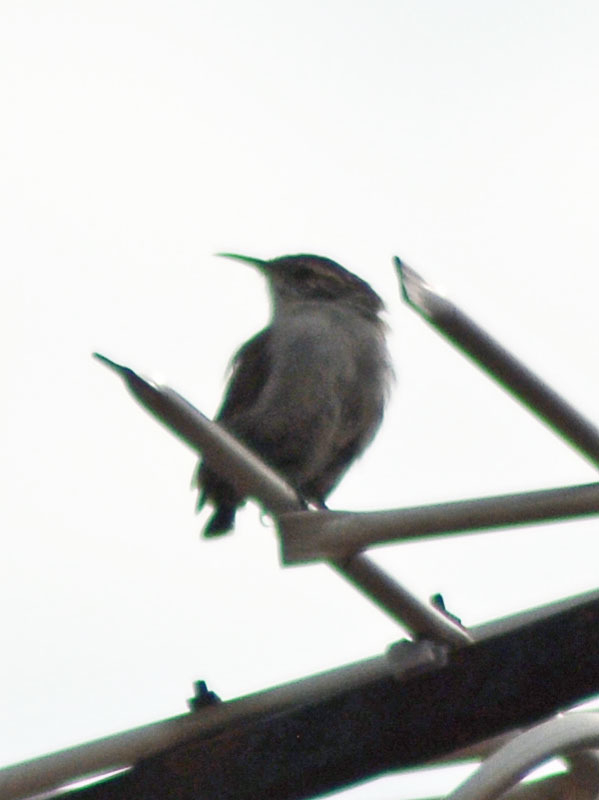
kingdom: Animalia
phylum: Chordata
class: Aves
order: Passeriformes
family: Troglodytidae
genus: Thryomanes
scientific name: Thryomanes bewickii
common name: Bewick's wren
